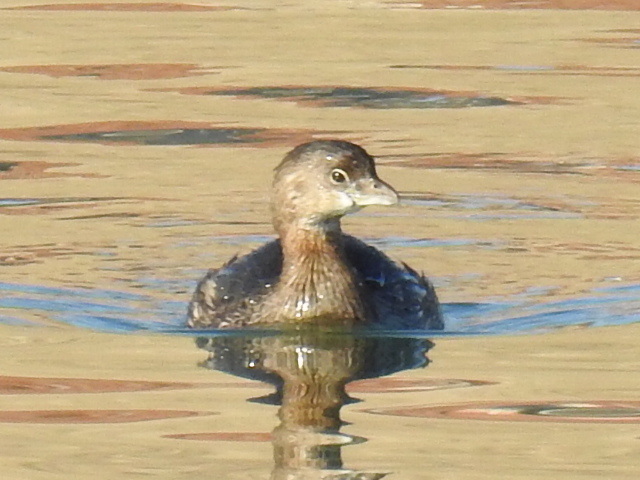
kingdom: Animalia
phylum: Chordata
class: Aves
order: Podicipediformes
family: Podicipedidae
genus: Podilymbus
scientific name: Podilymbus podiceps
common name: Pied-billed grebe
